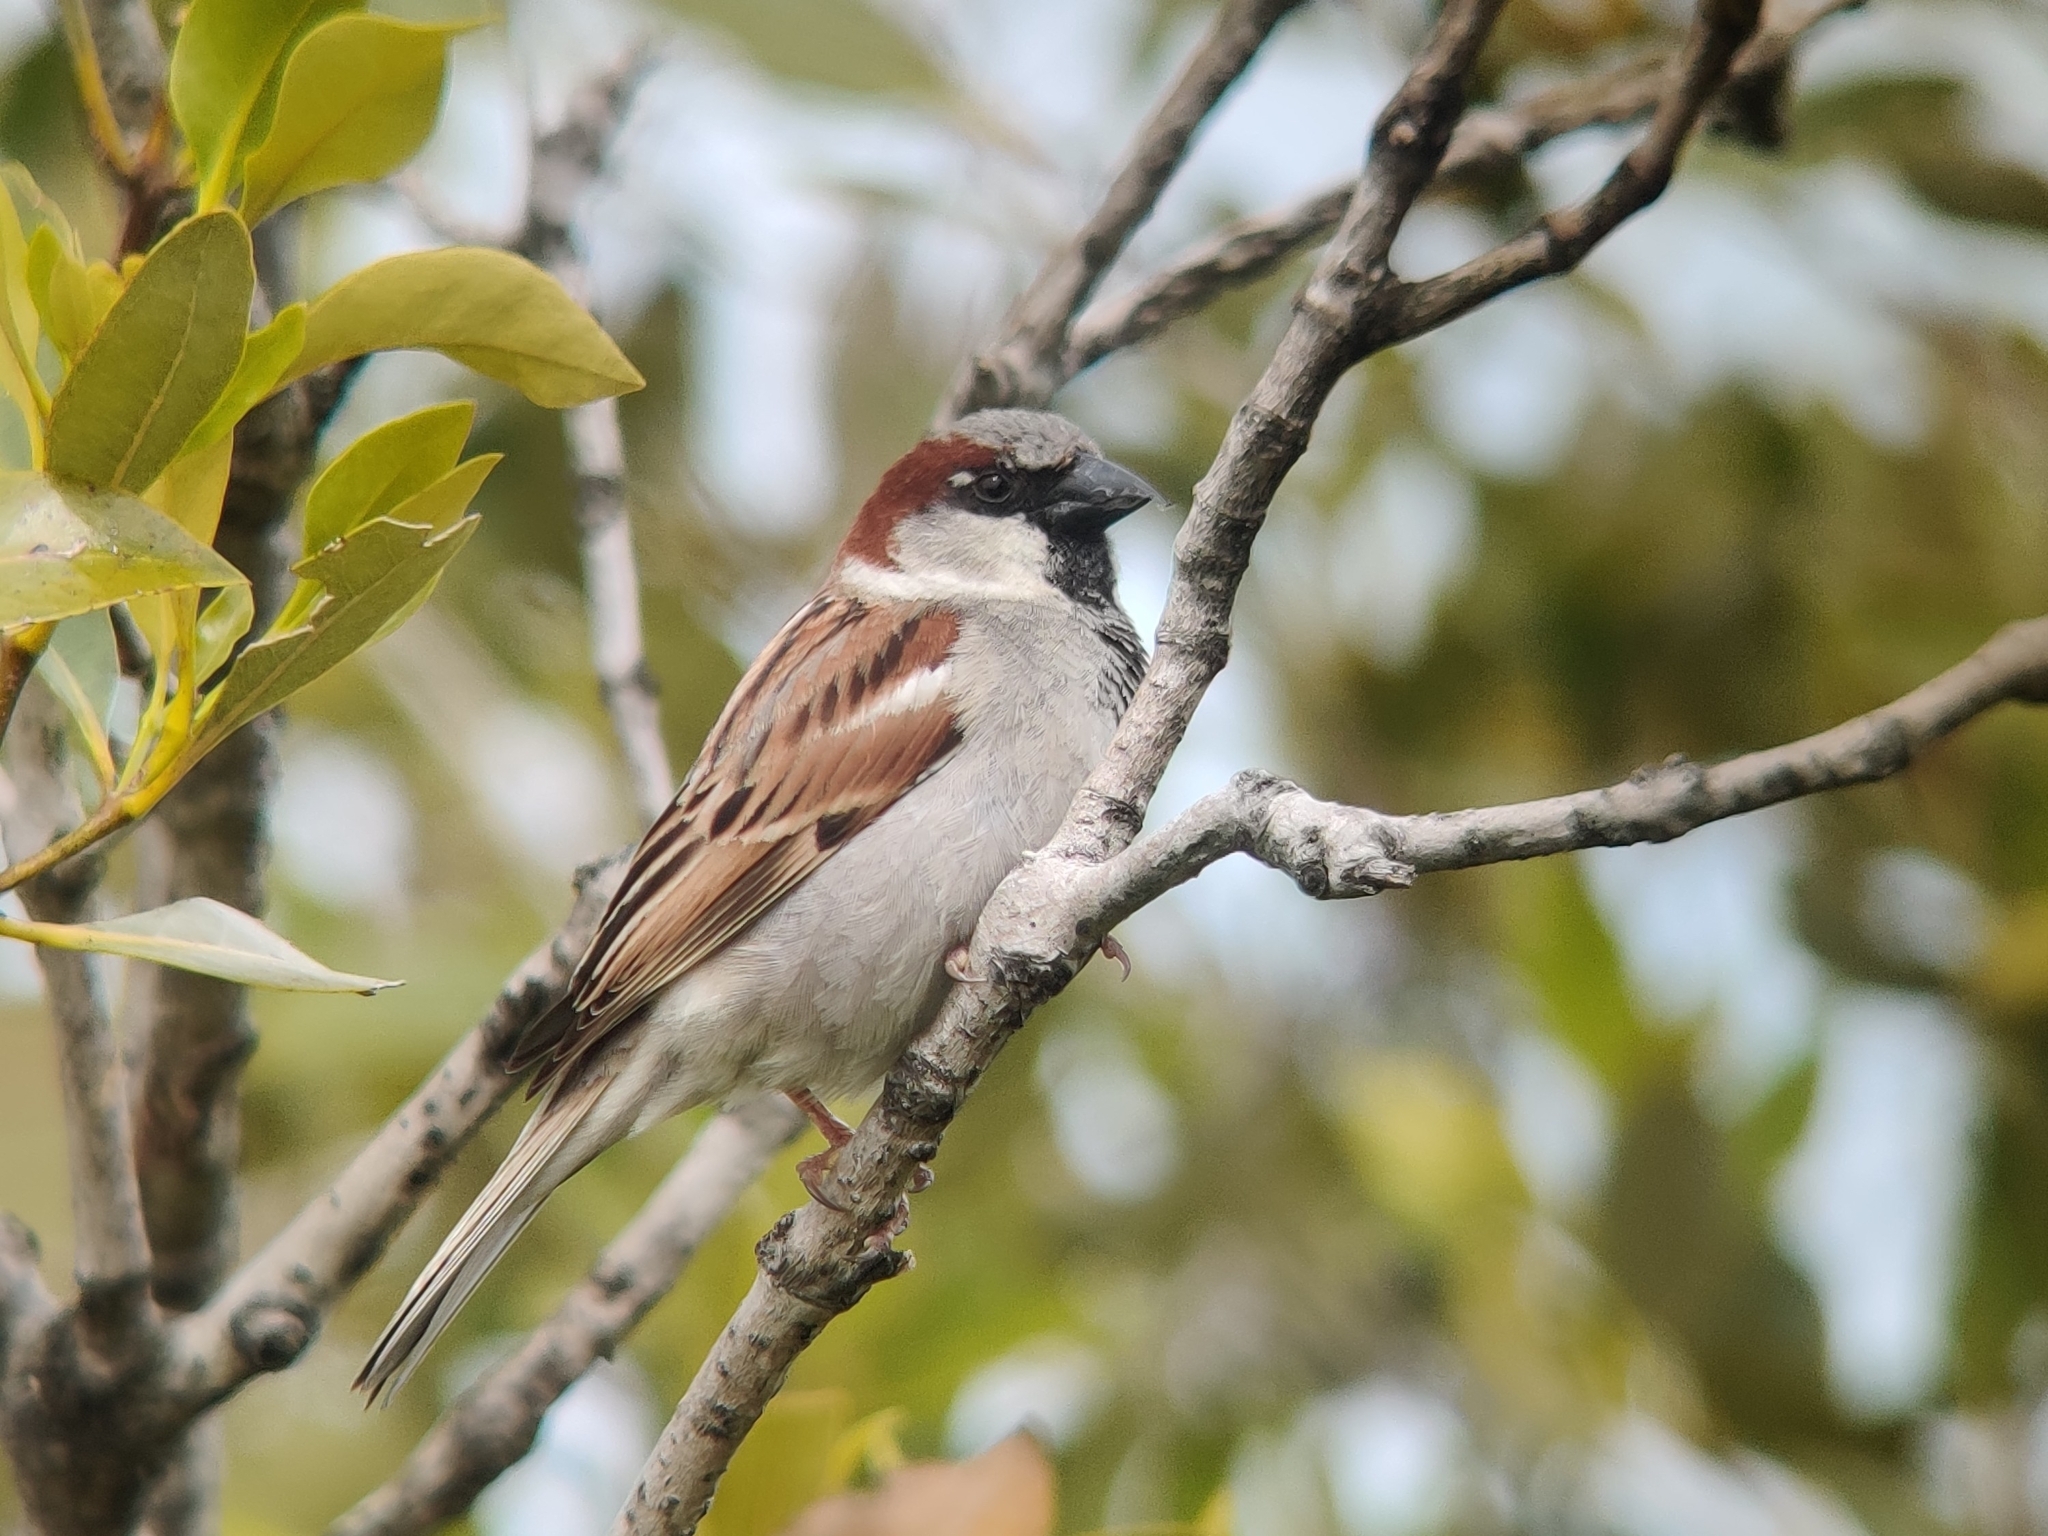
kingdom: Animalia
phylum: Chordata
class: Aves
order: Passeriformes
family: Passeridae
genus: Passer
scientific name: Passer domesticus
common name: House sparrow
